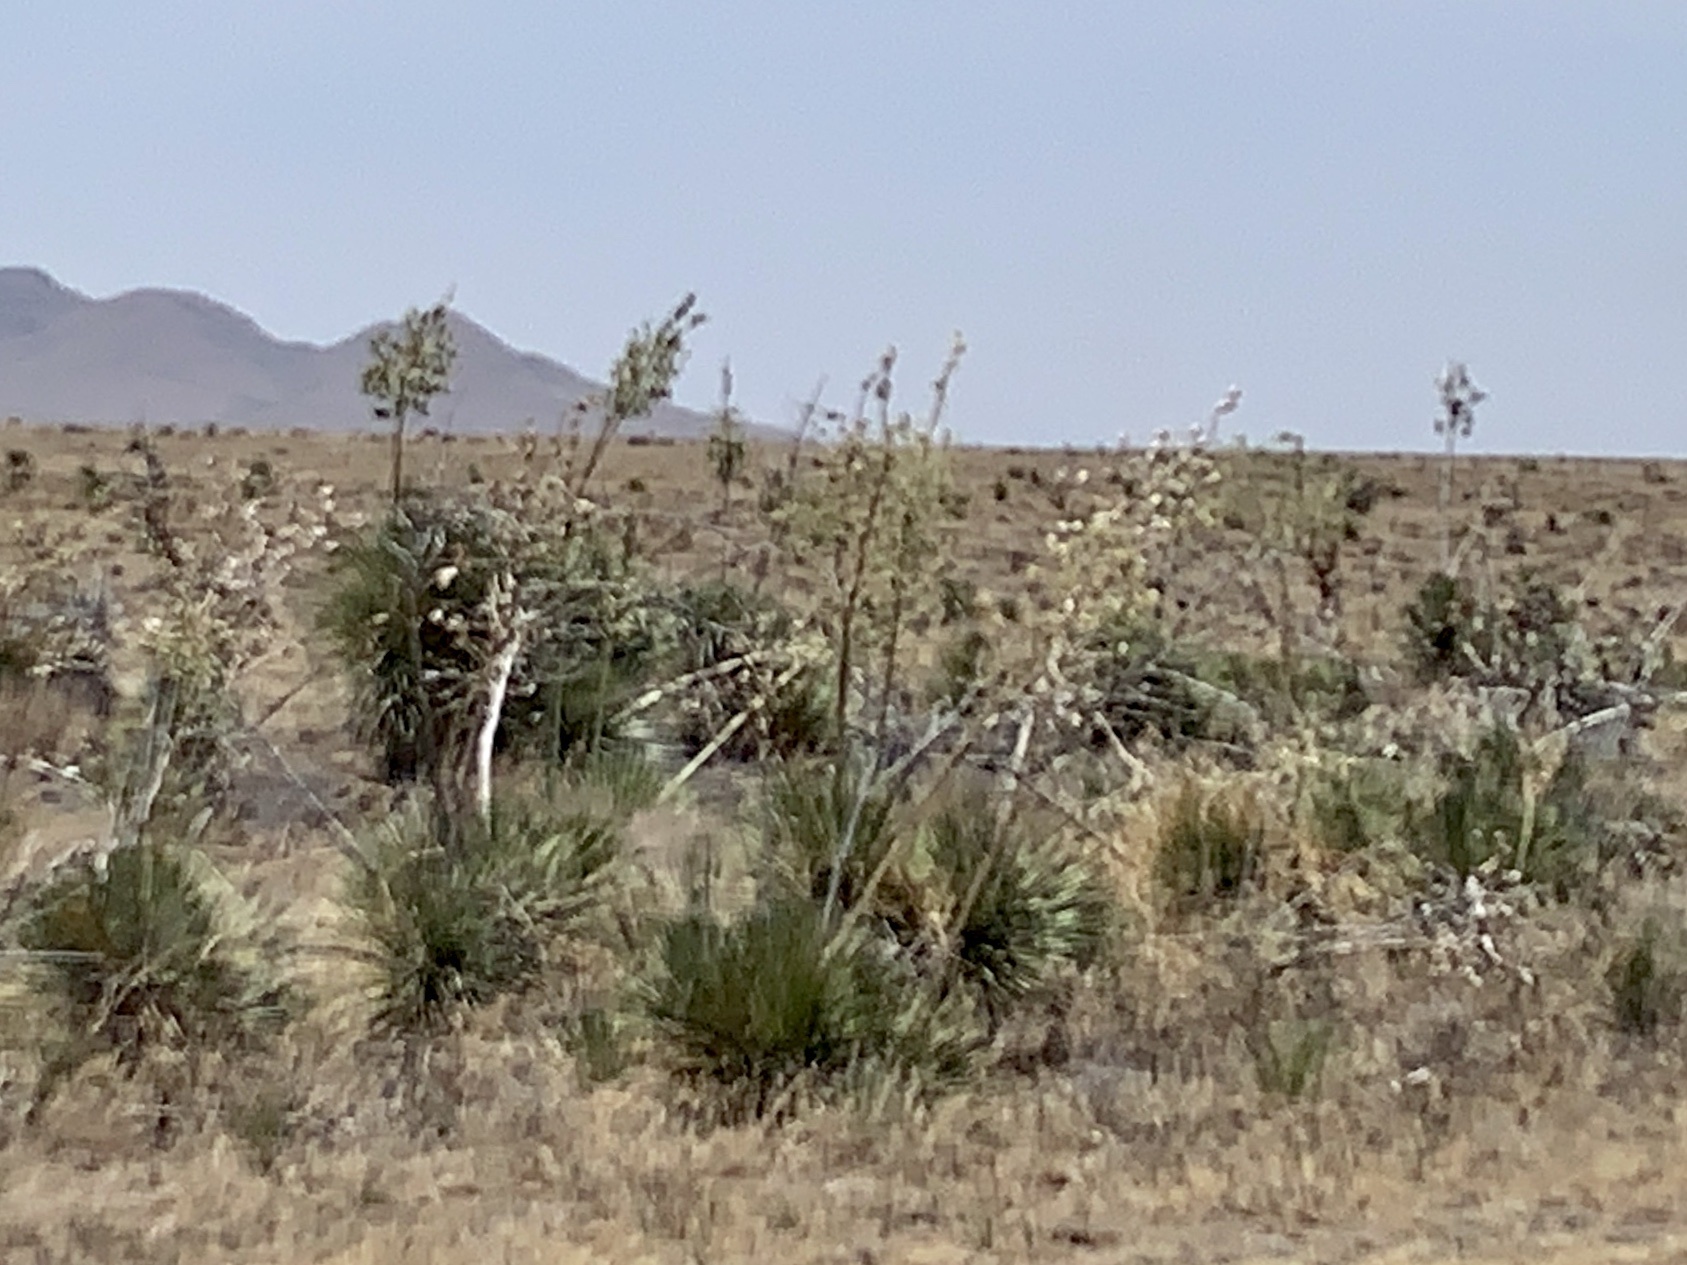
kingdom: Plantae
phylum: Tracheophyta
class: Liliopsida
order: Asparagales
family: Asparagaceae
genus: Yucca
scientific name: Yucca elata
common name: Palmella
